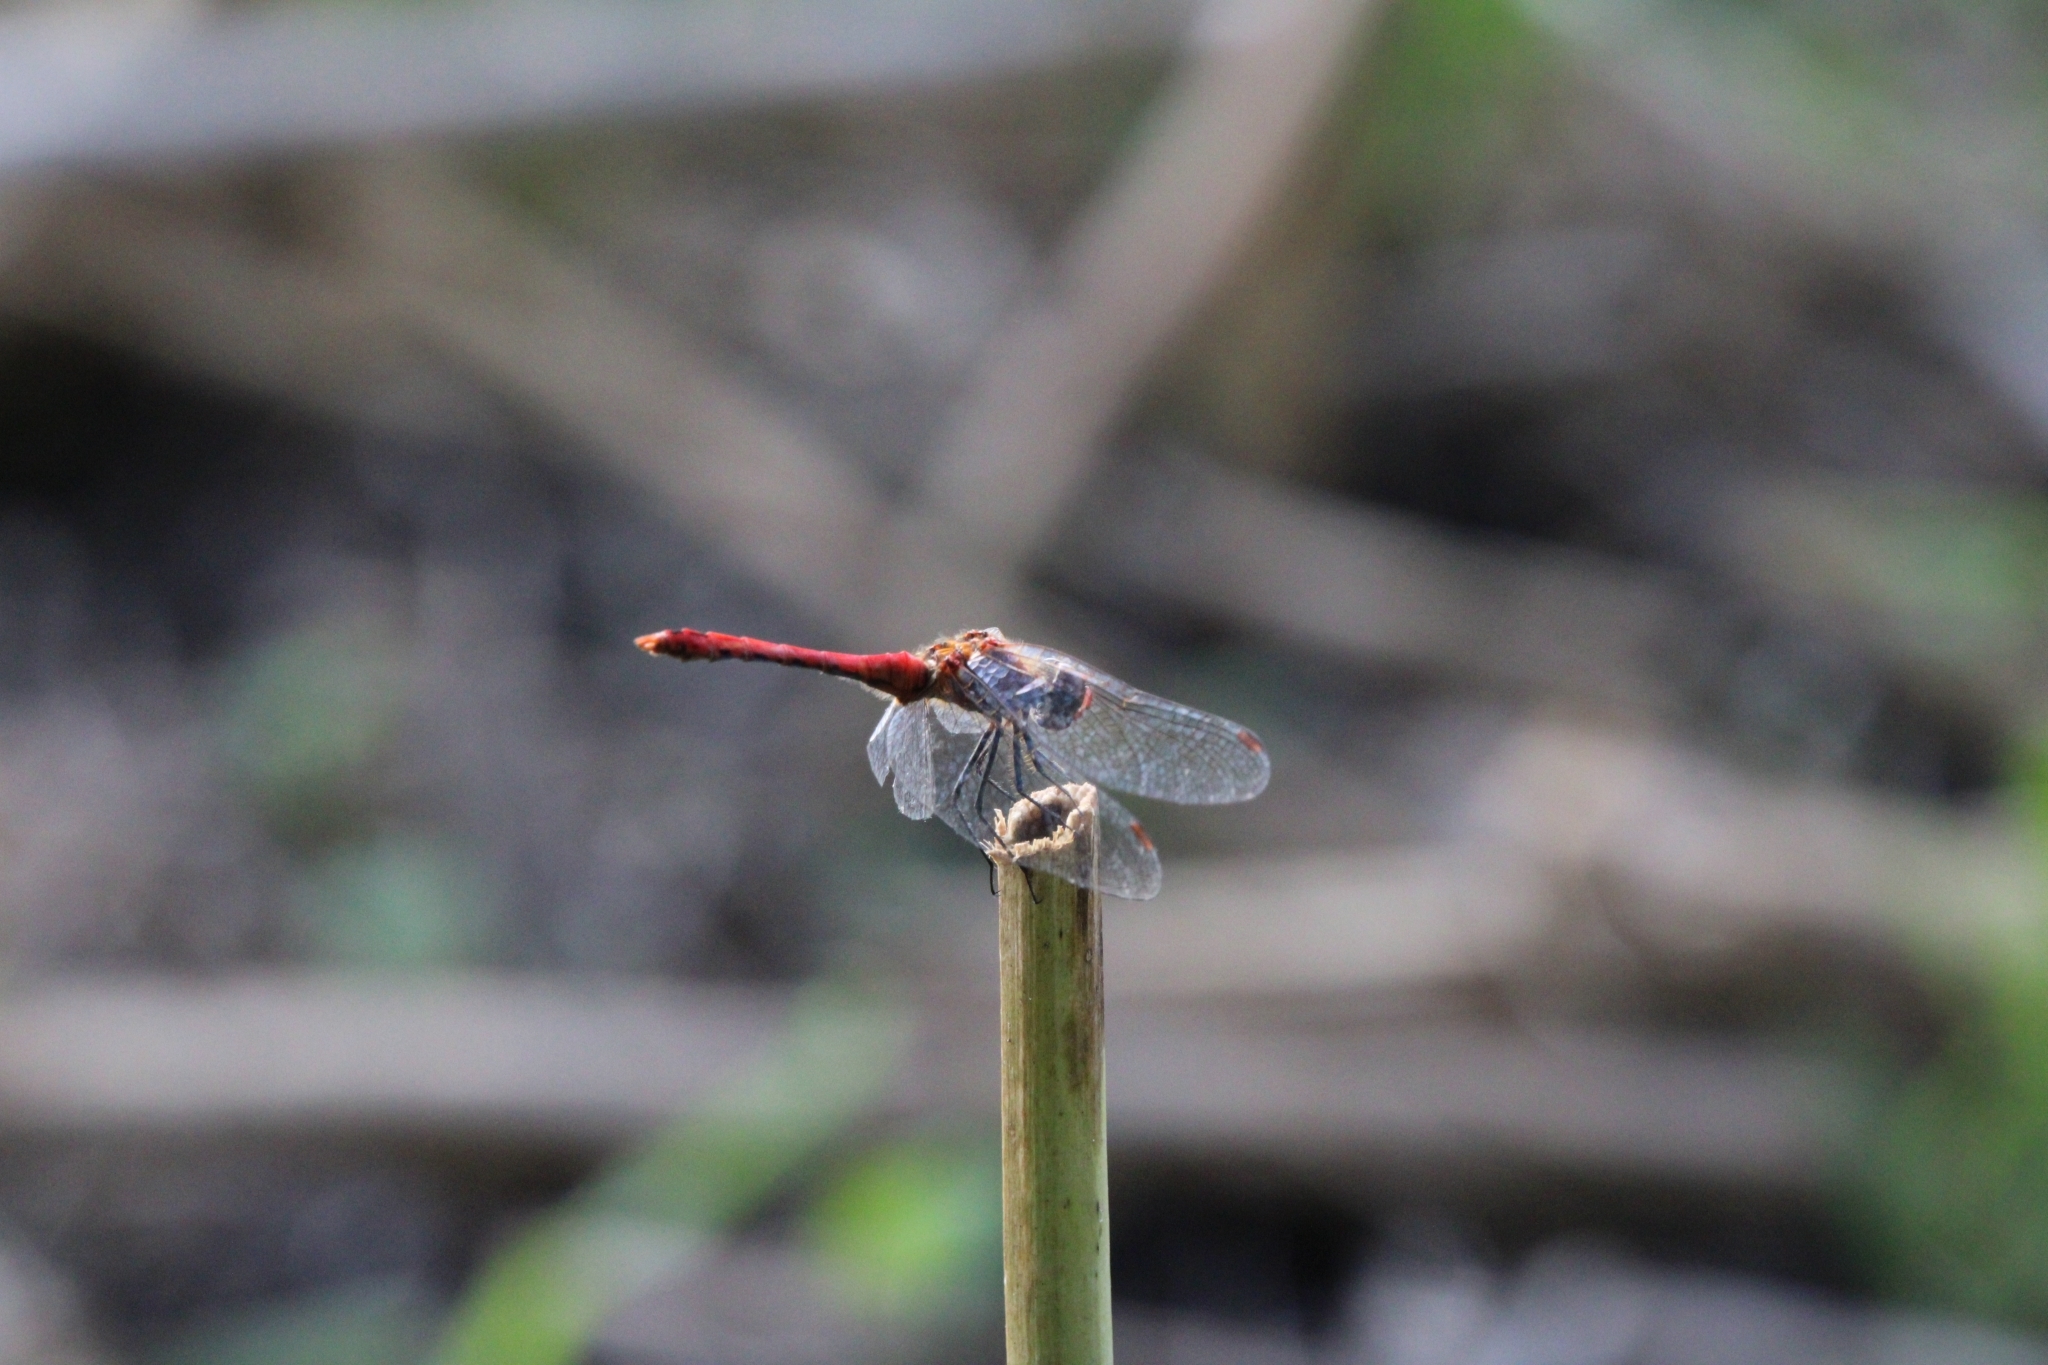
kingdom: Animalia
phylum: Arthropoda
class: Insecta
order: Odonata
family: Libellulidae
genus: Sympetrum
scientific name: Sympetrum sanguineum
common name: Ruddy darter
